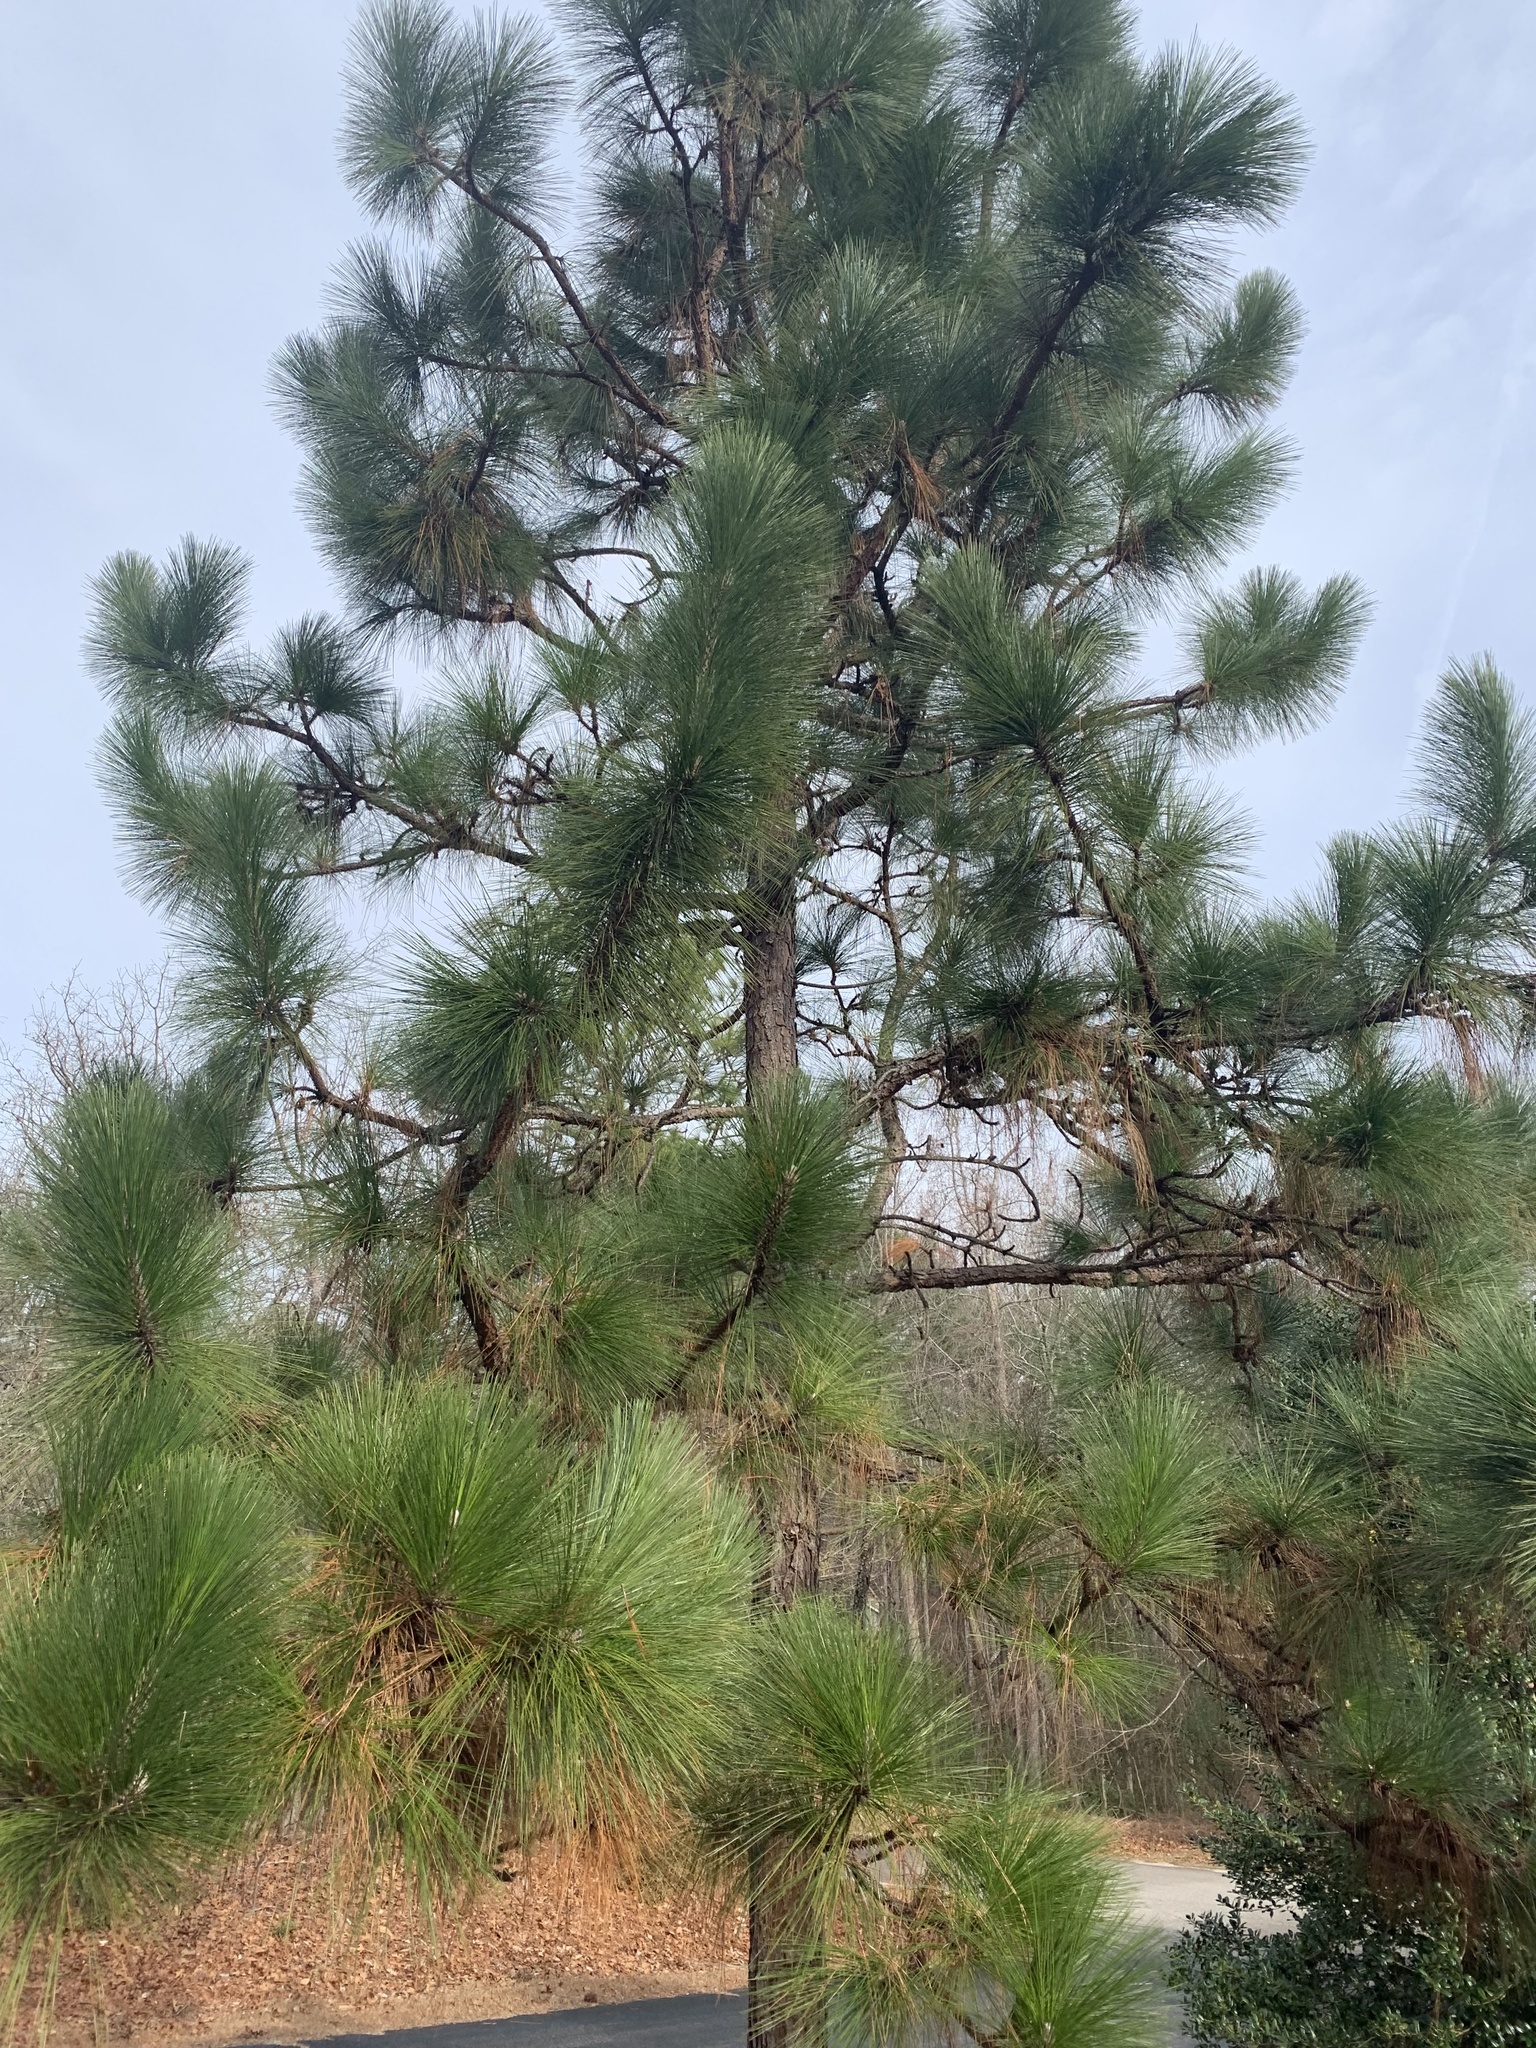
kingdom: Plantae
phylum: Tracheophyta
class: Pinopsida
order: Pinales
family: Pinaceae
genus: Pinus
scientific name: Pinus palustris
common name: Longleaf pine
